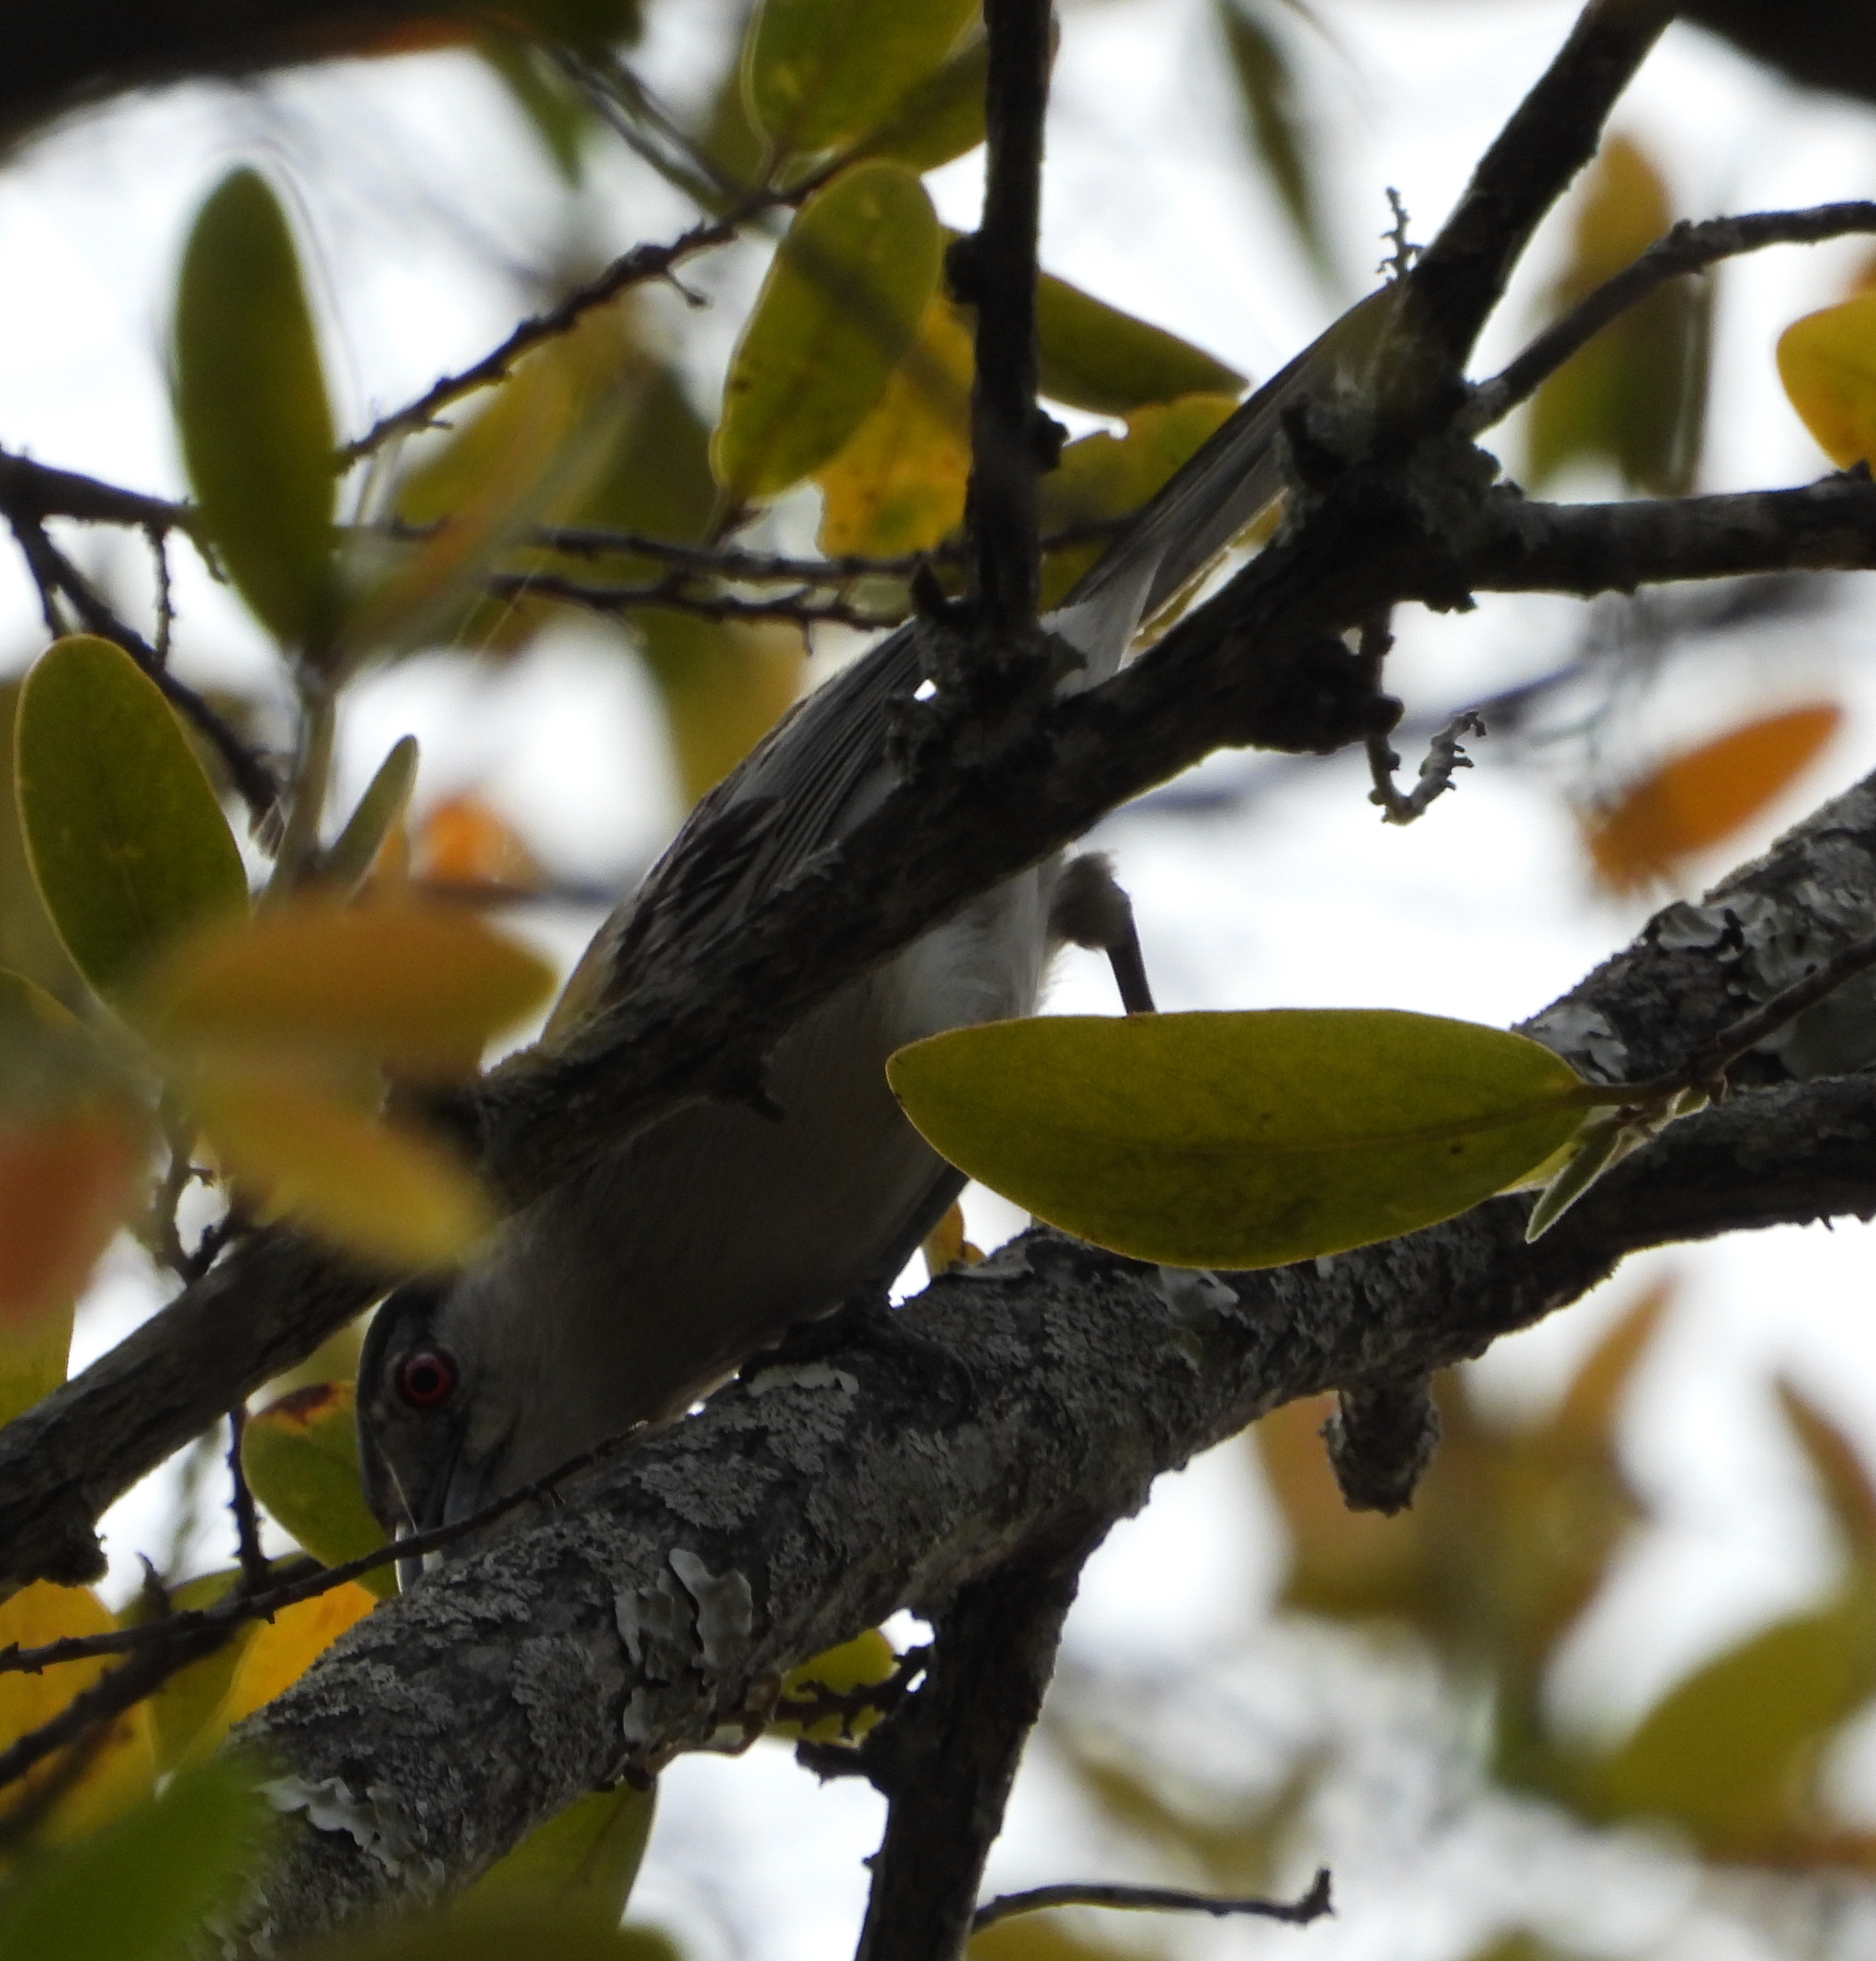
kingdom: Animalia
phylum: Chordata
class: Aves
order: Passeriformes
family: Malaconotidae
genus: Dryoscopus
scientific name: Dryoscopus cubla
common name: Black-backed puffback
